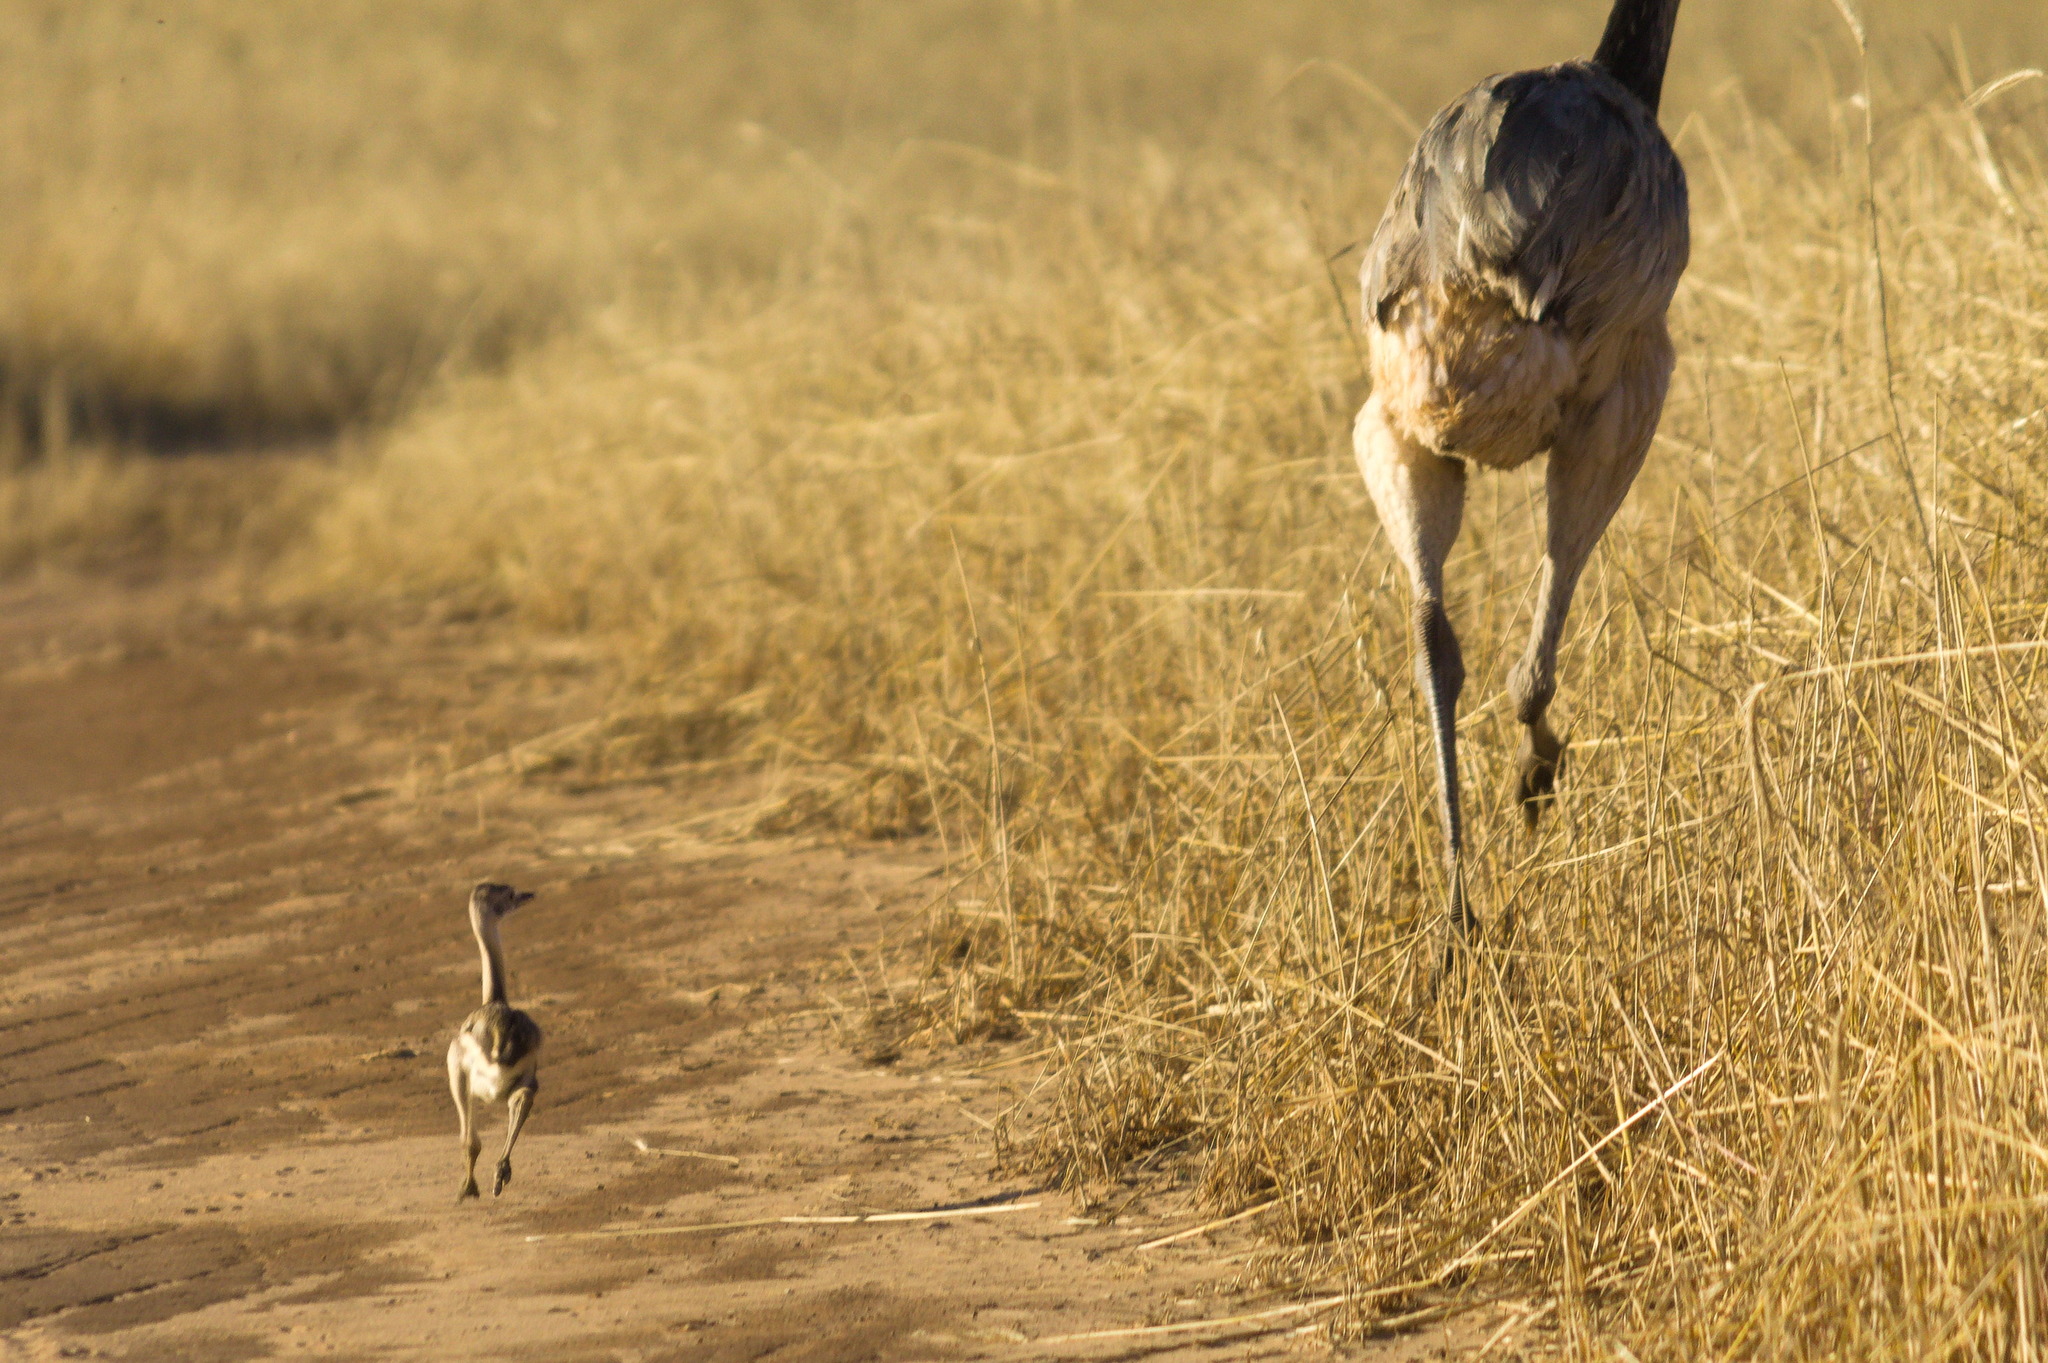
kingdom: Animalia
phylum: Chordata
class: Aves
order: Rheiformes
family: Rheidae
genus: Rhea
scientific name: Rhea americana
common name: Greater rhea
